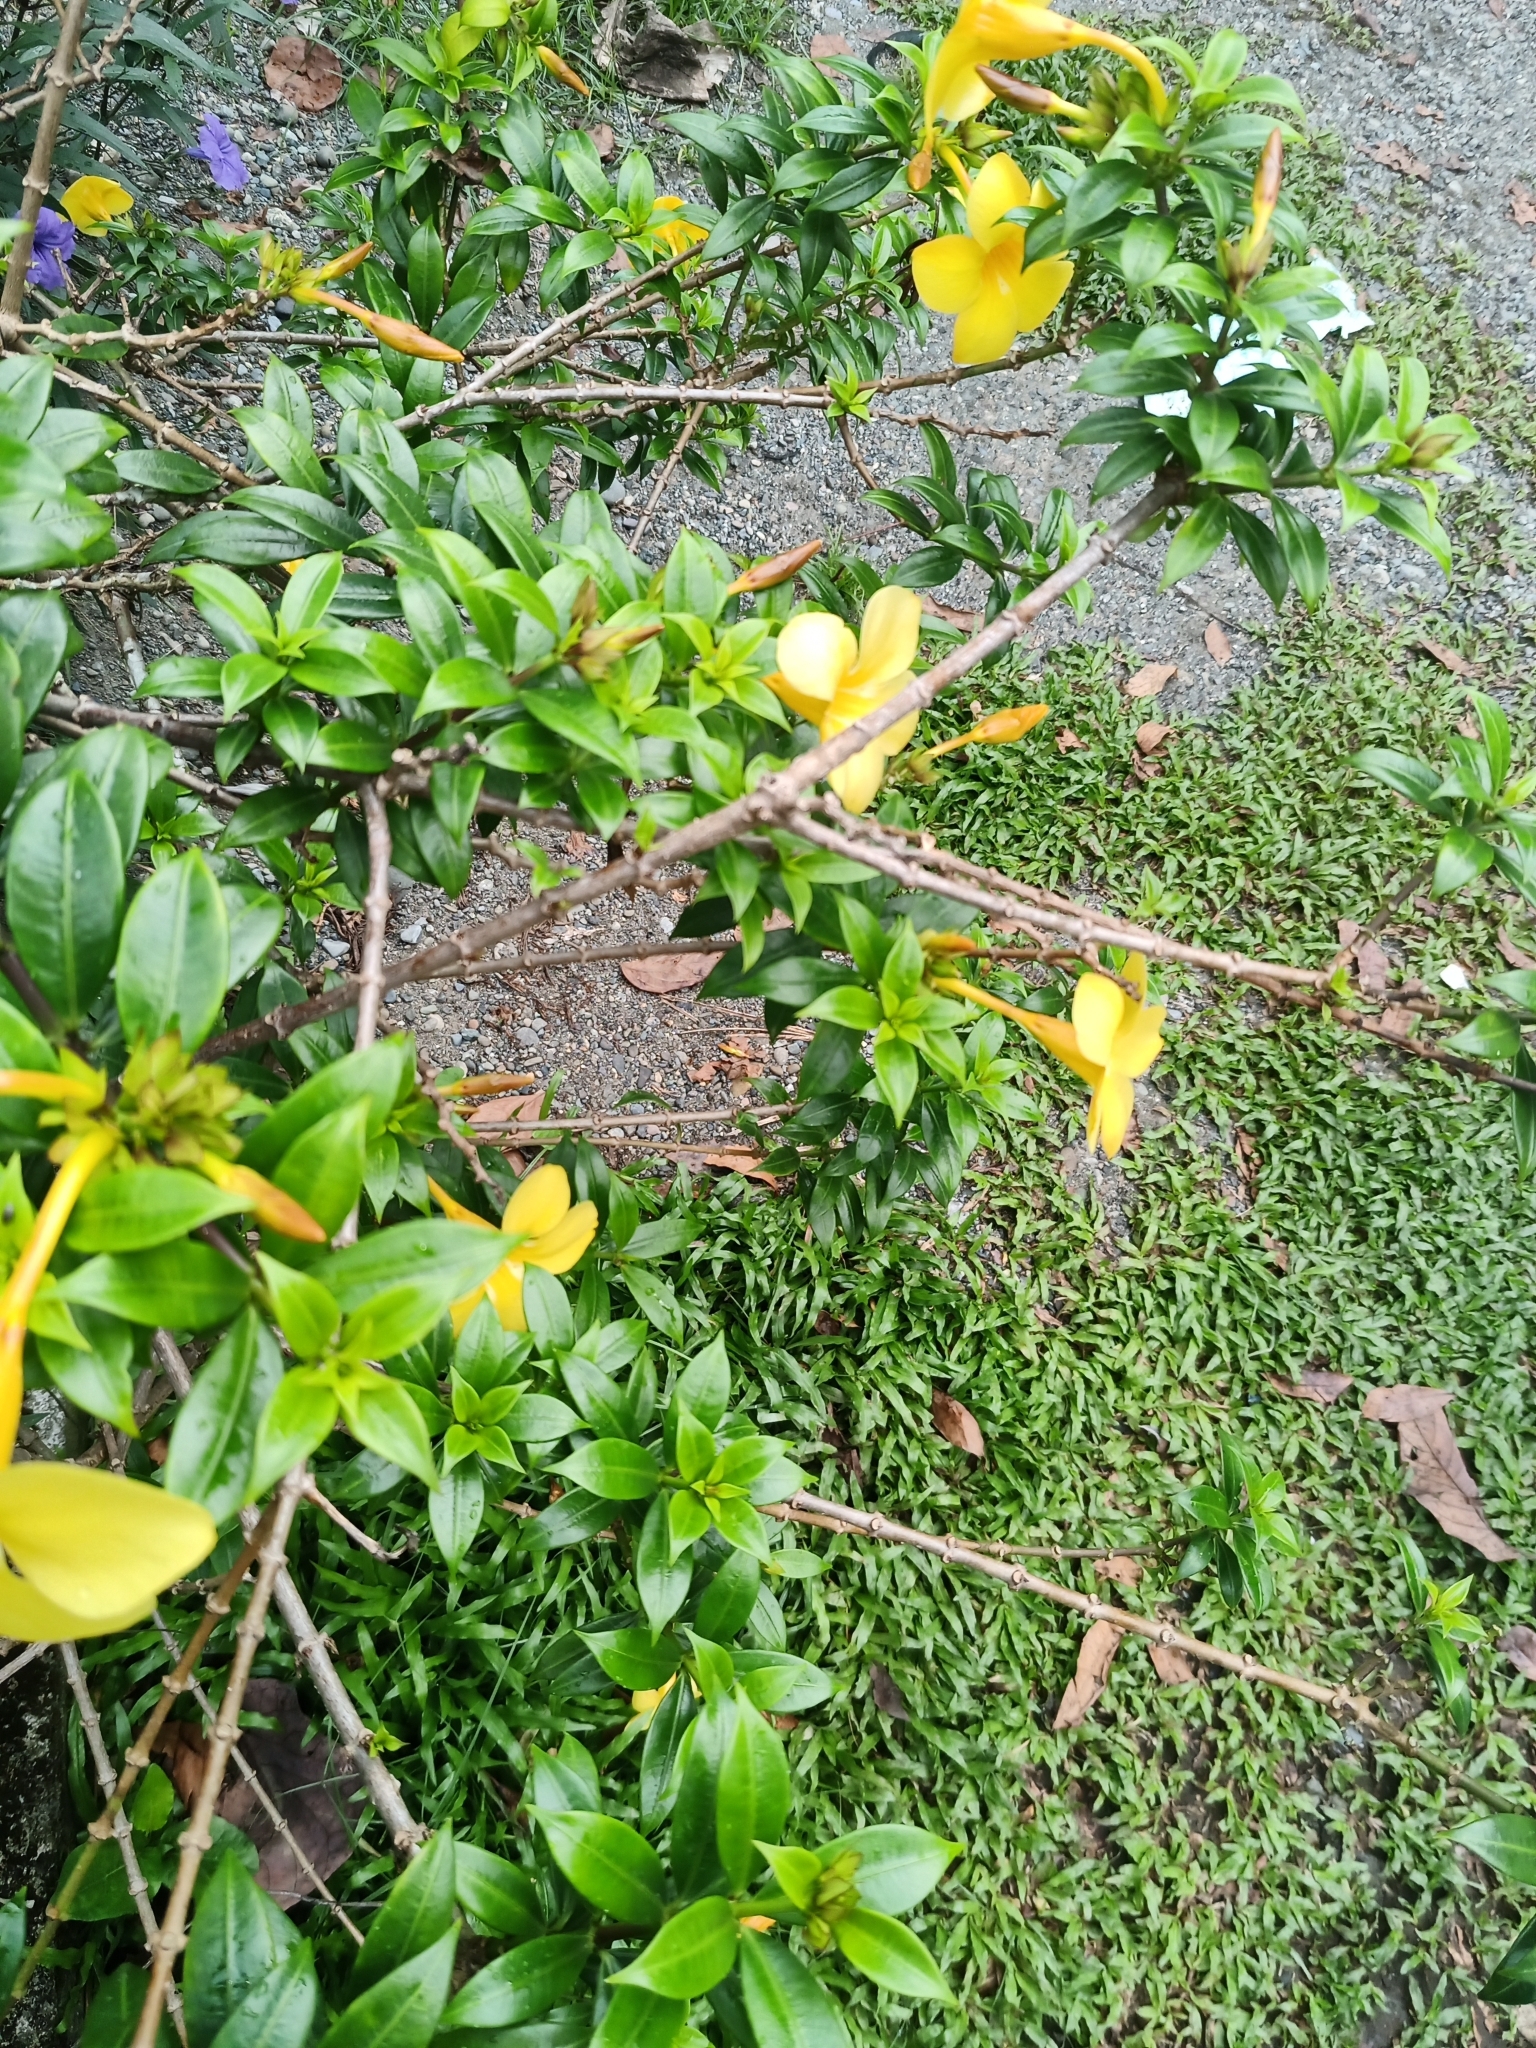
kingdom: Plantae
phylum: Tracheophyta
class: Magnoliopsida
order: Gentianales
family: Apocynaceae
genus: Allamanda
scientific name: Allamanda cathartica
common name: Golden trumpet
